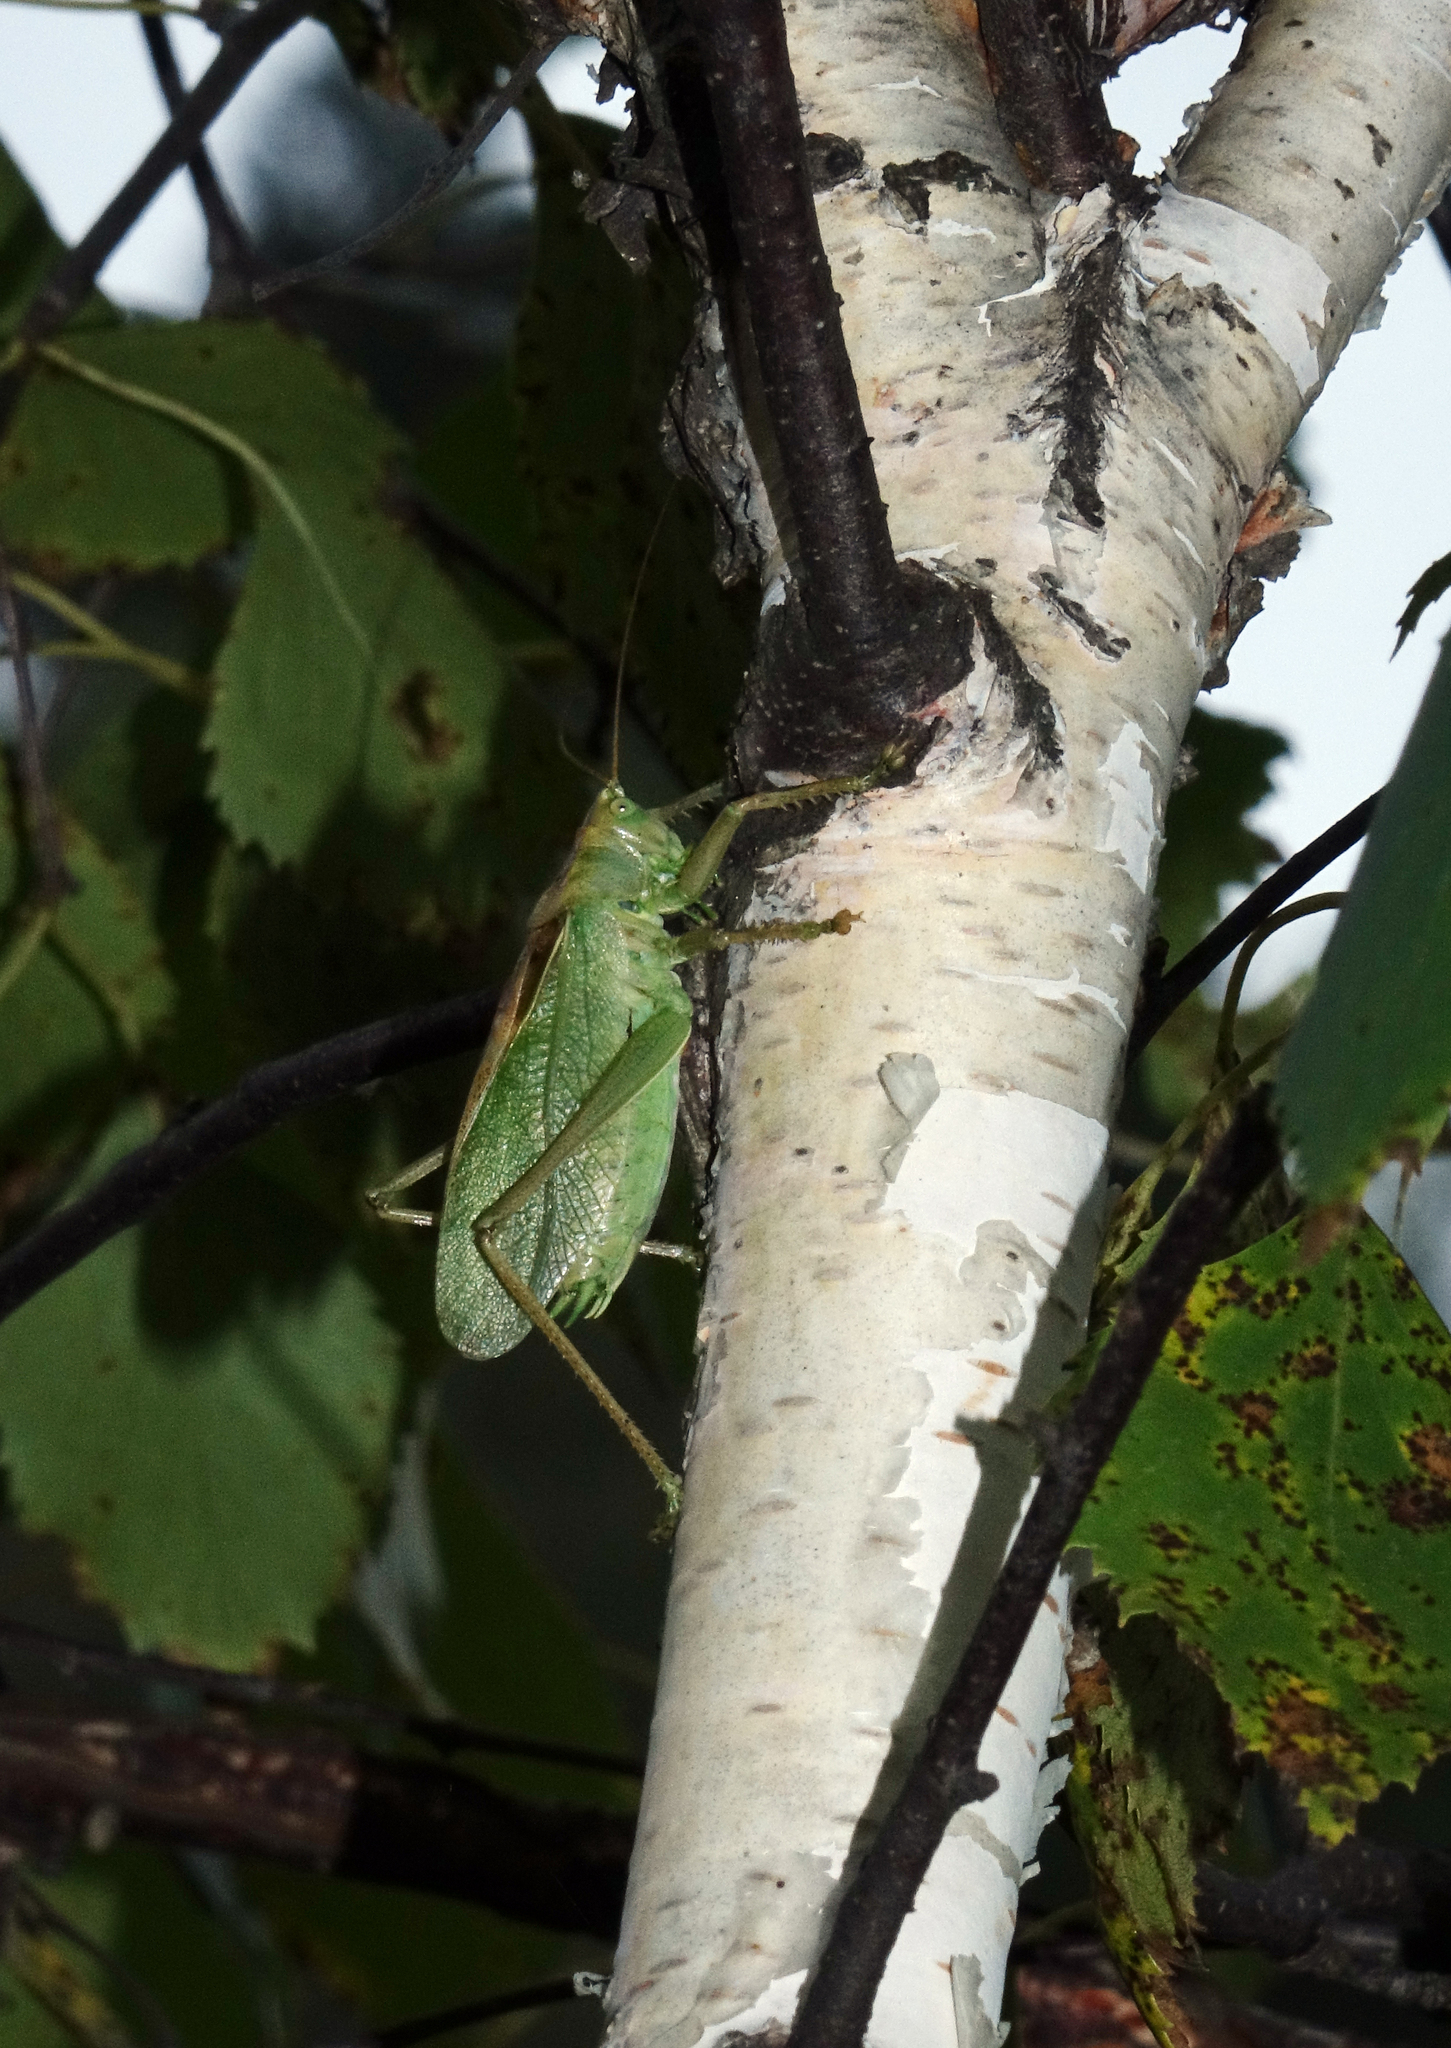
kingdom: Animalia
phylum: Arthropoda
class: Insecta
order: Orthoptera
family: Tettigoniidae
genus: Tettigonia
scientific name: Tettigonia cantans
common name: Upland green bush-cricket
